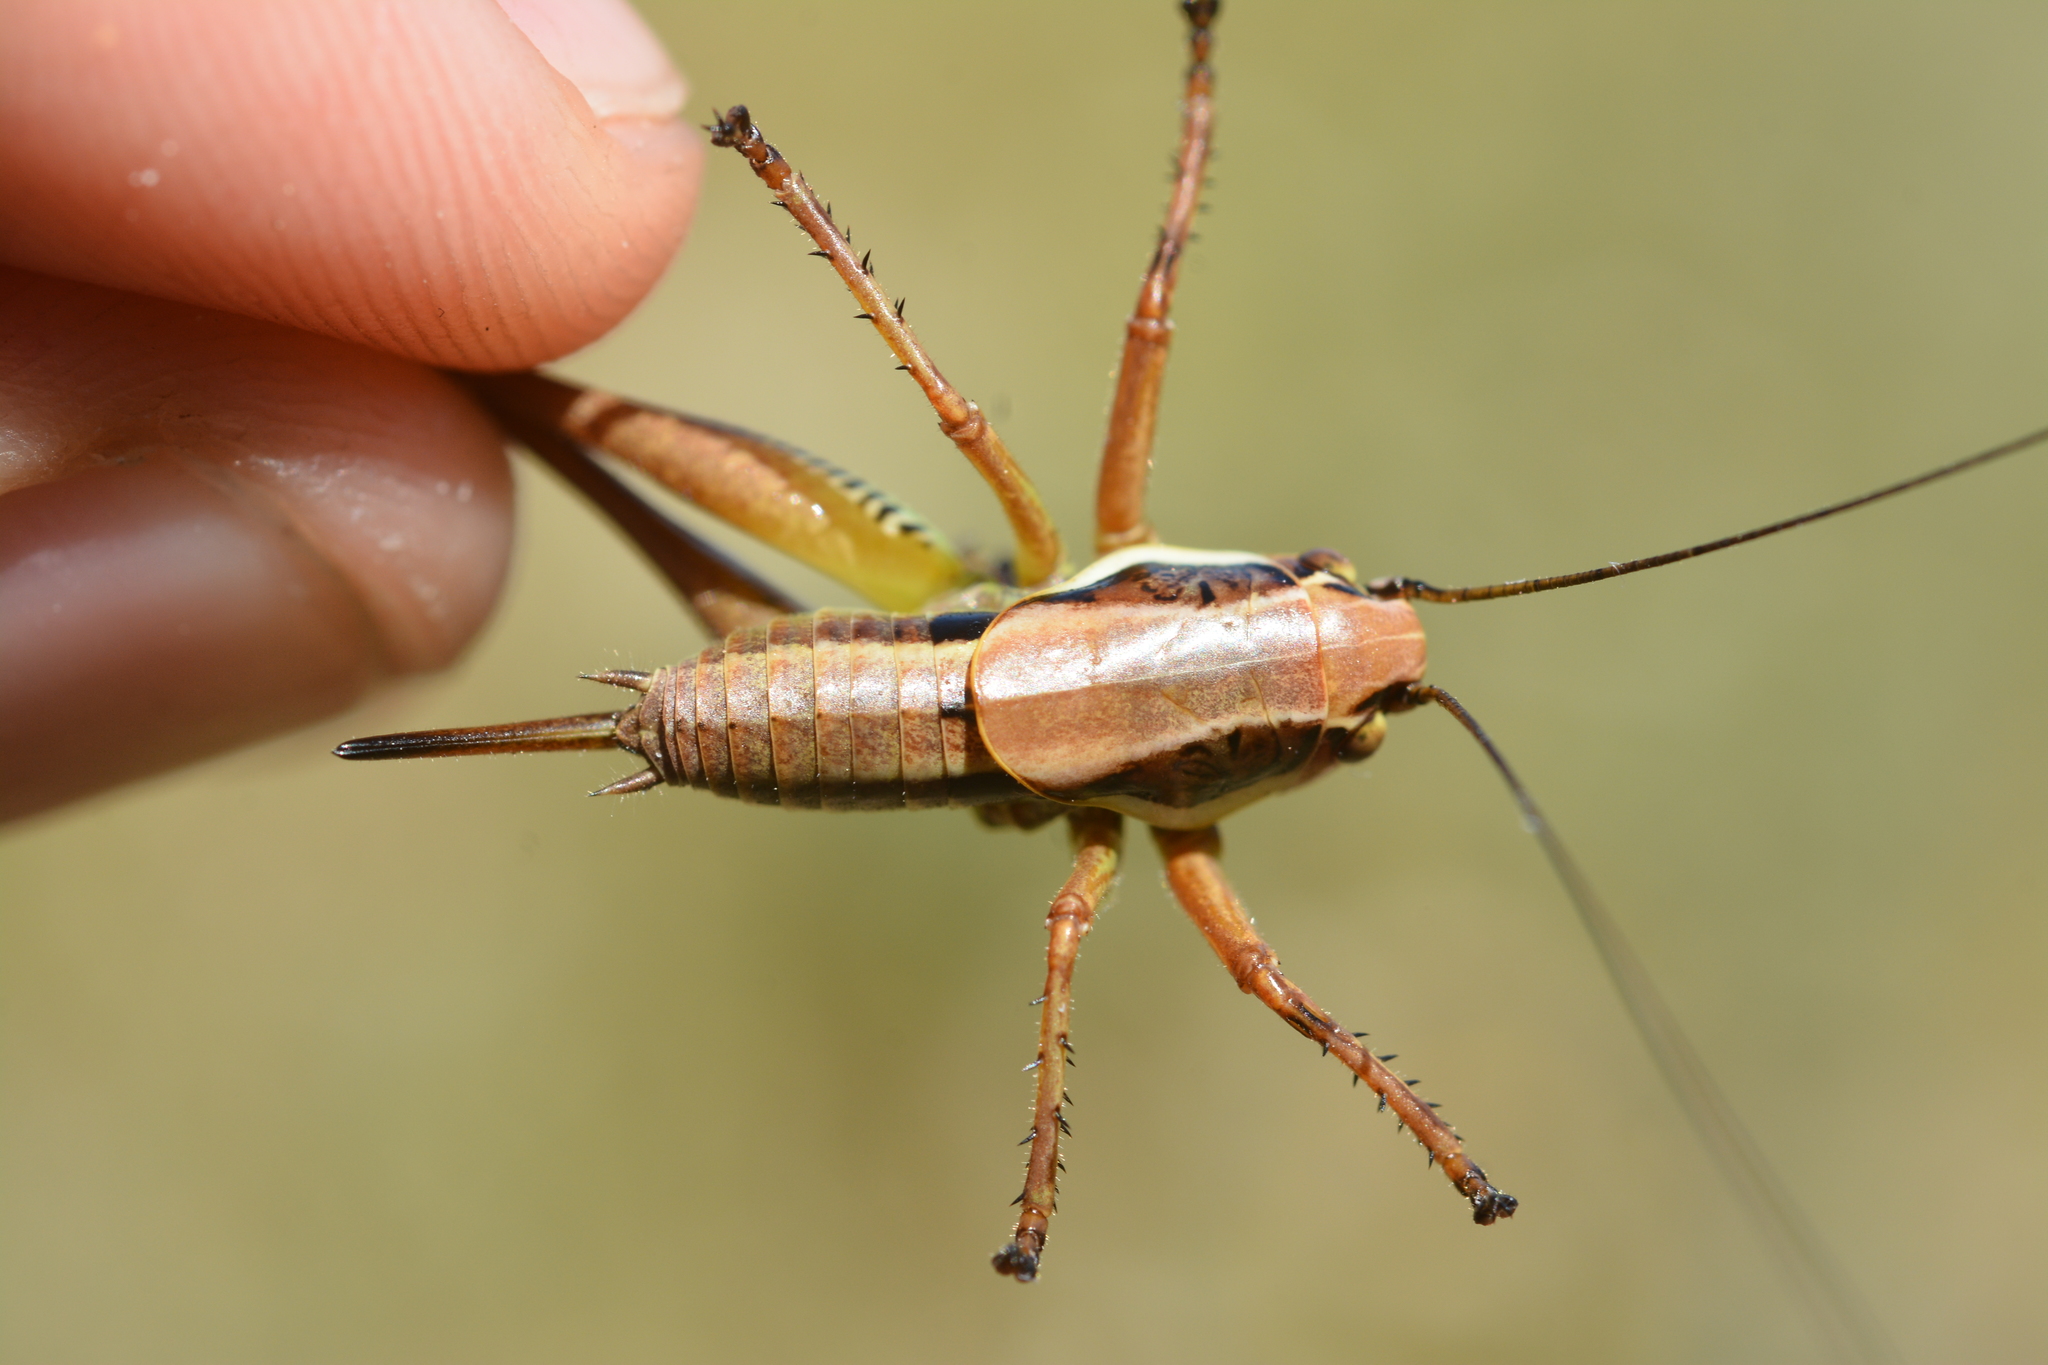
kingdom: Animalia
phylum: Arthropoda
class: Insecta
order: Orthoptera
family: Tettigoniidae
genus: Eupholidoptera
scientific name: Eupholidoptera bimucronata
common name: Sicilian marbled bush-cricket
